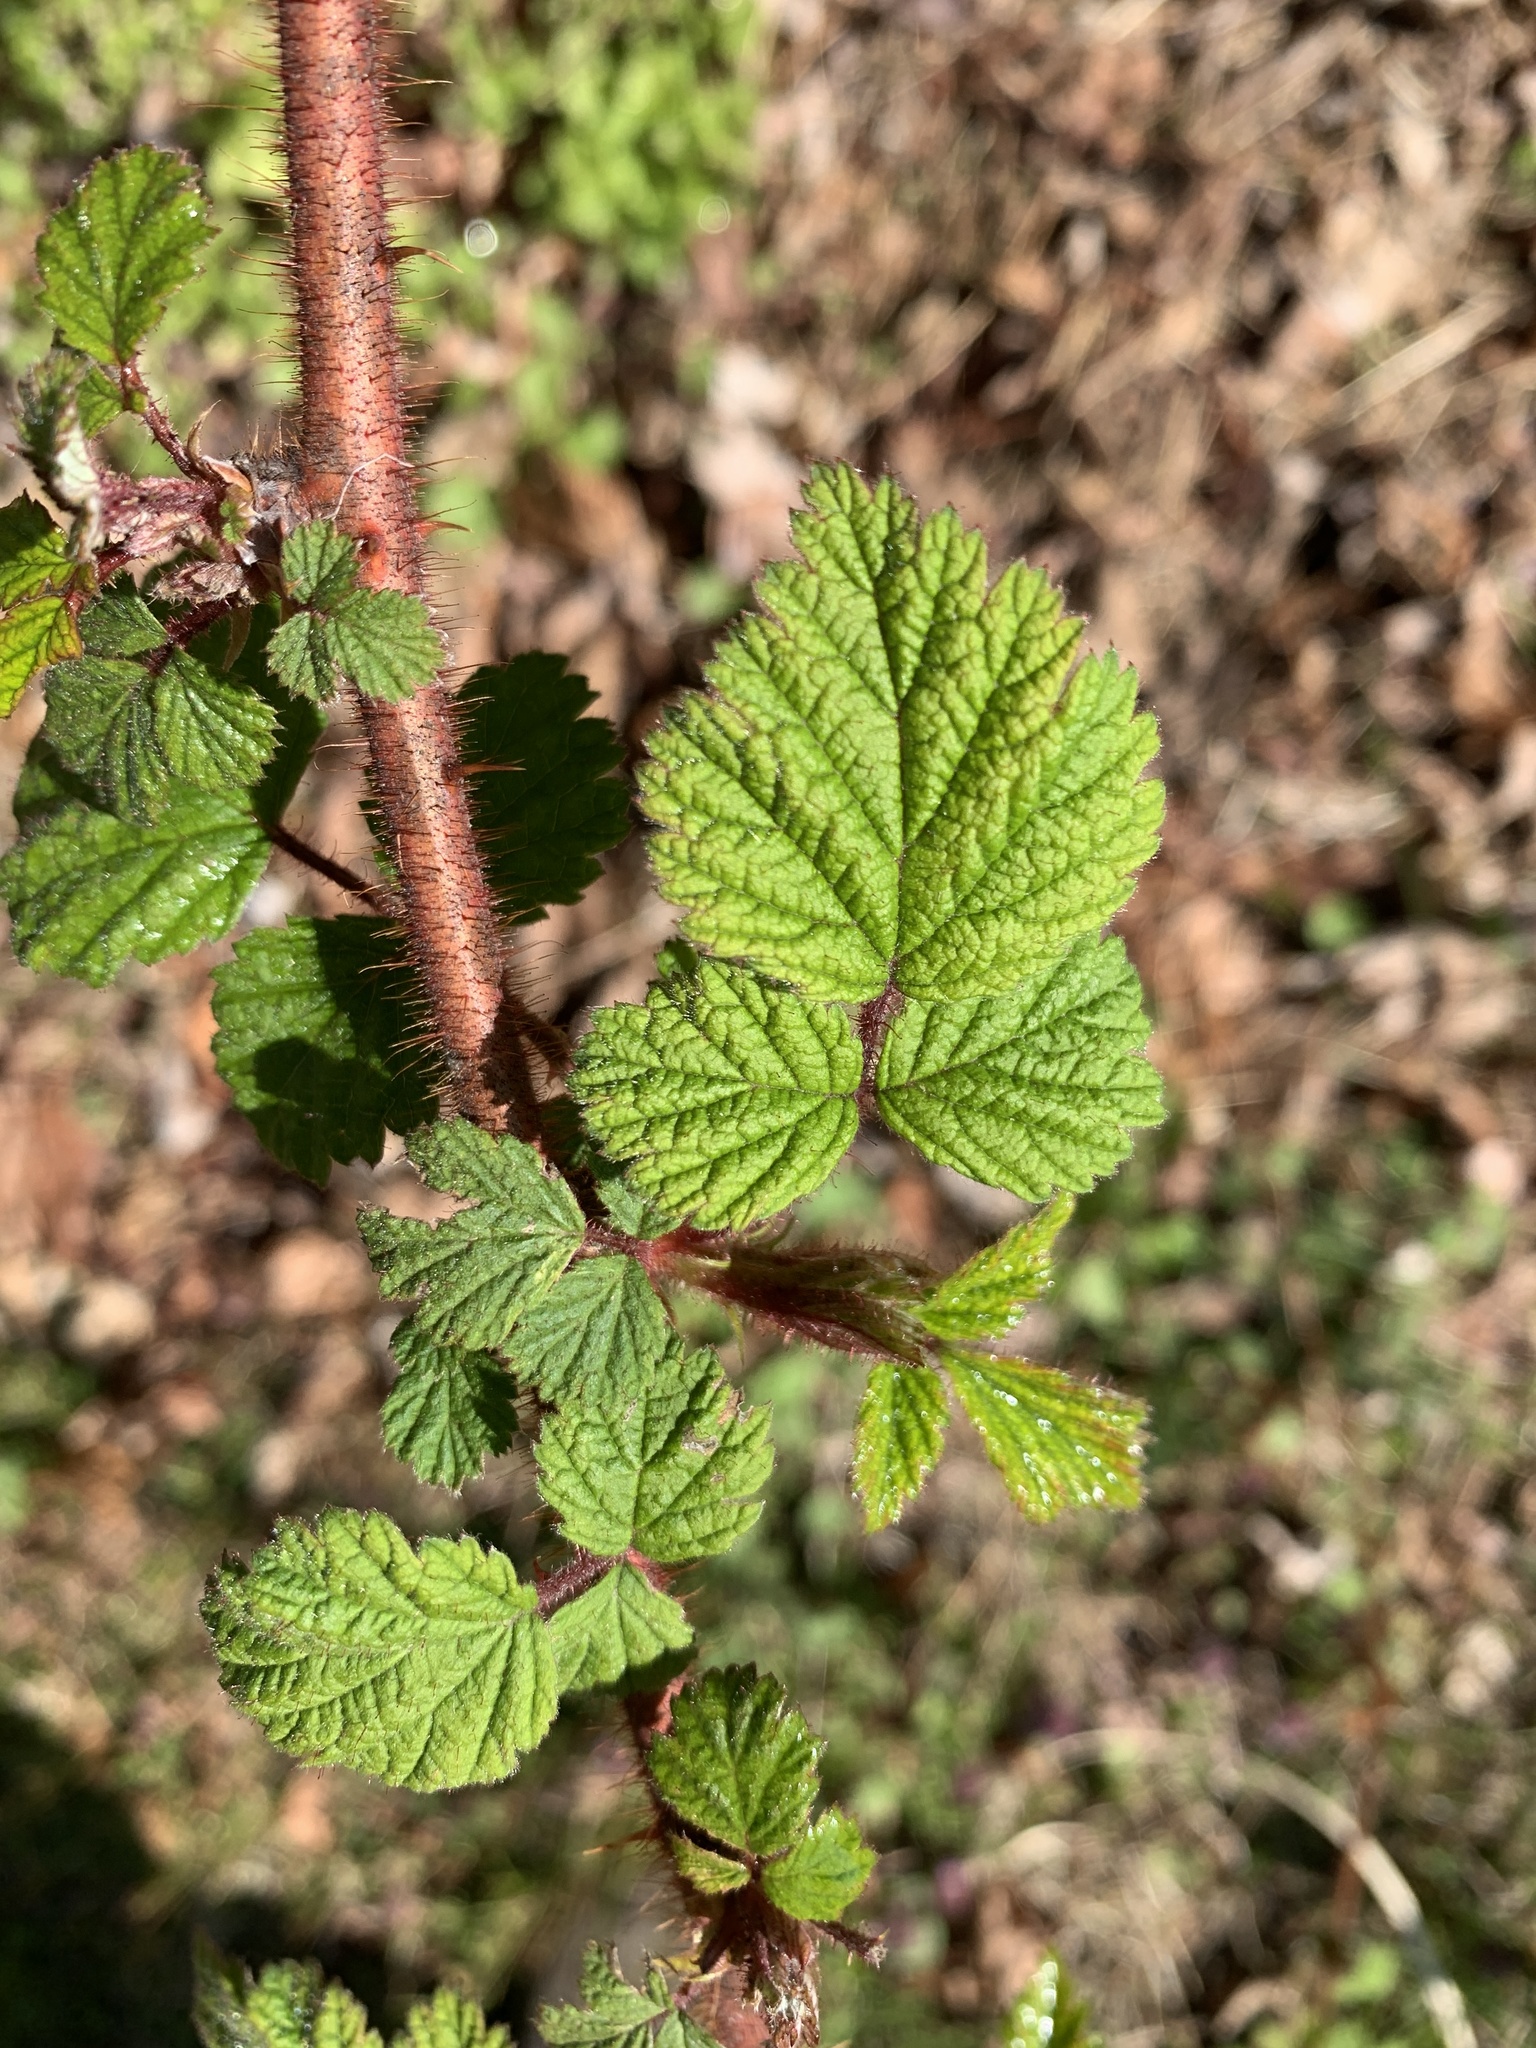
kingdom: Plantae
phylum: Tracheophyta
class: Magnoliopsida
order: Rosales
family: Rosaceae
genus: Rubus
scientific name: Rubus phoenicolasius
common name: Japanese wineberry
